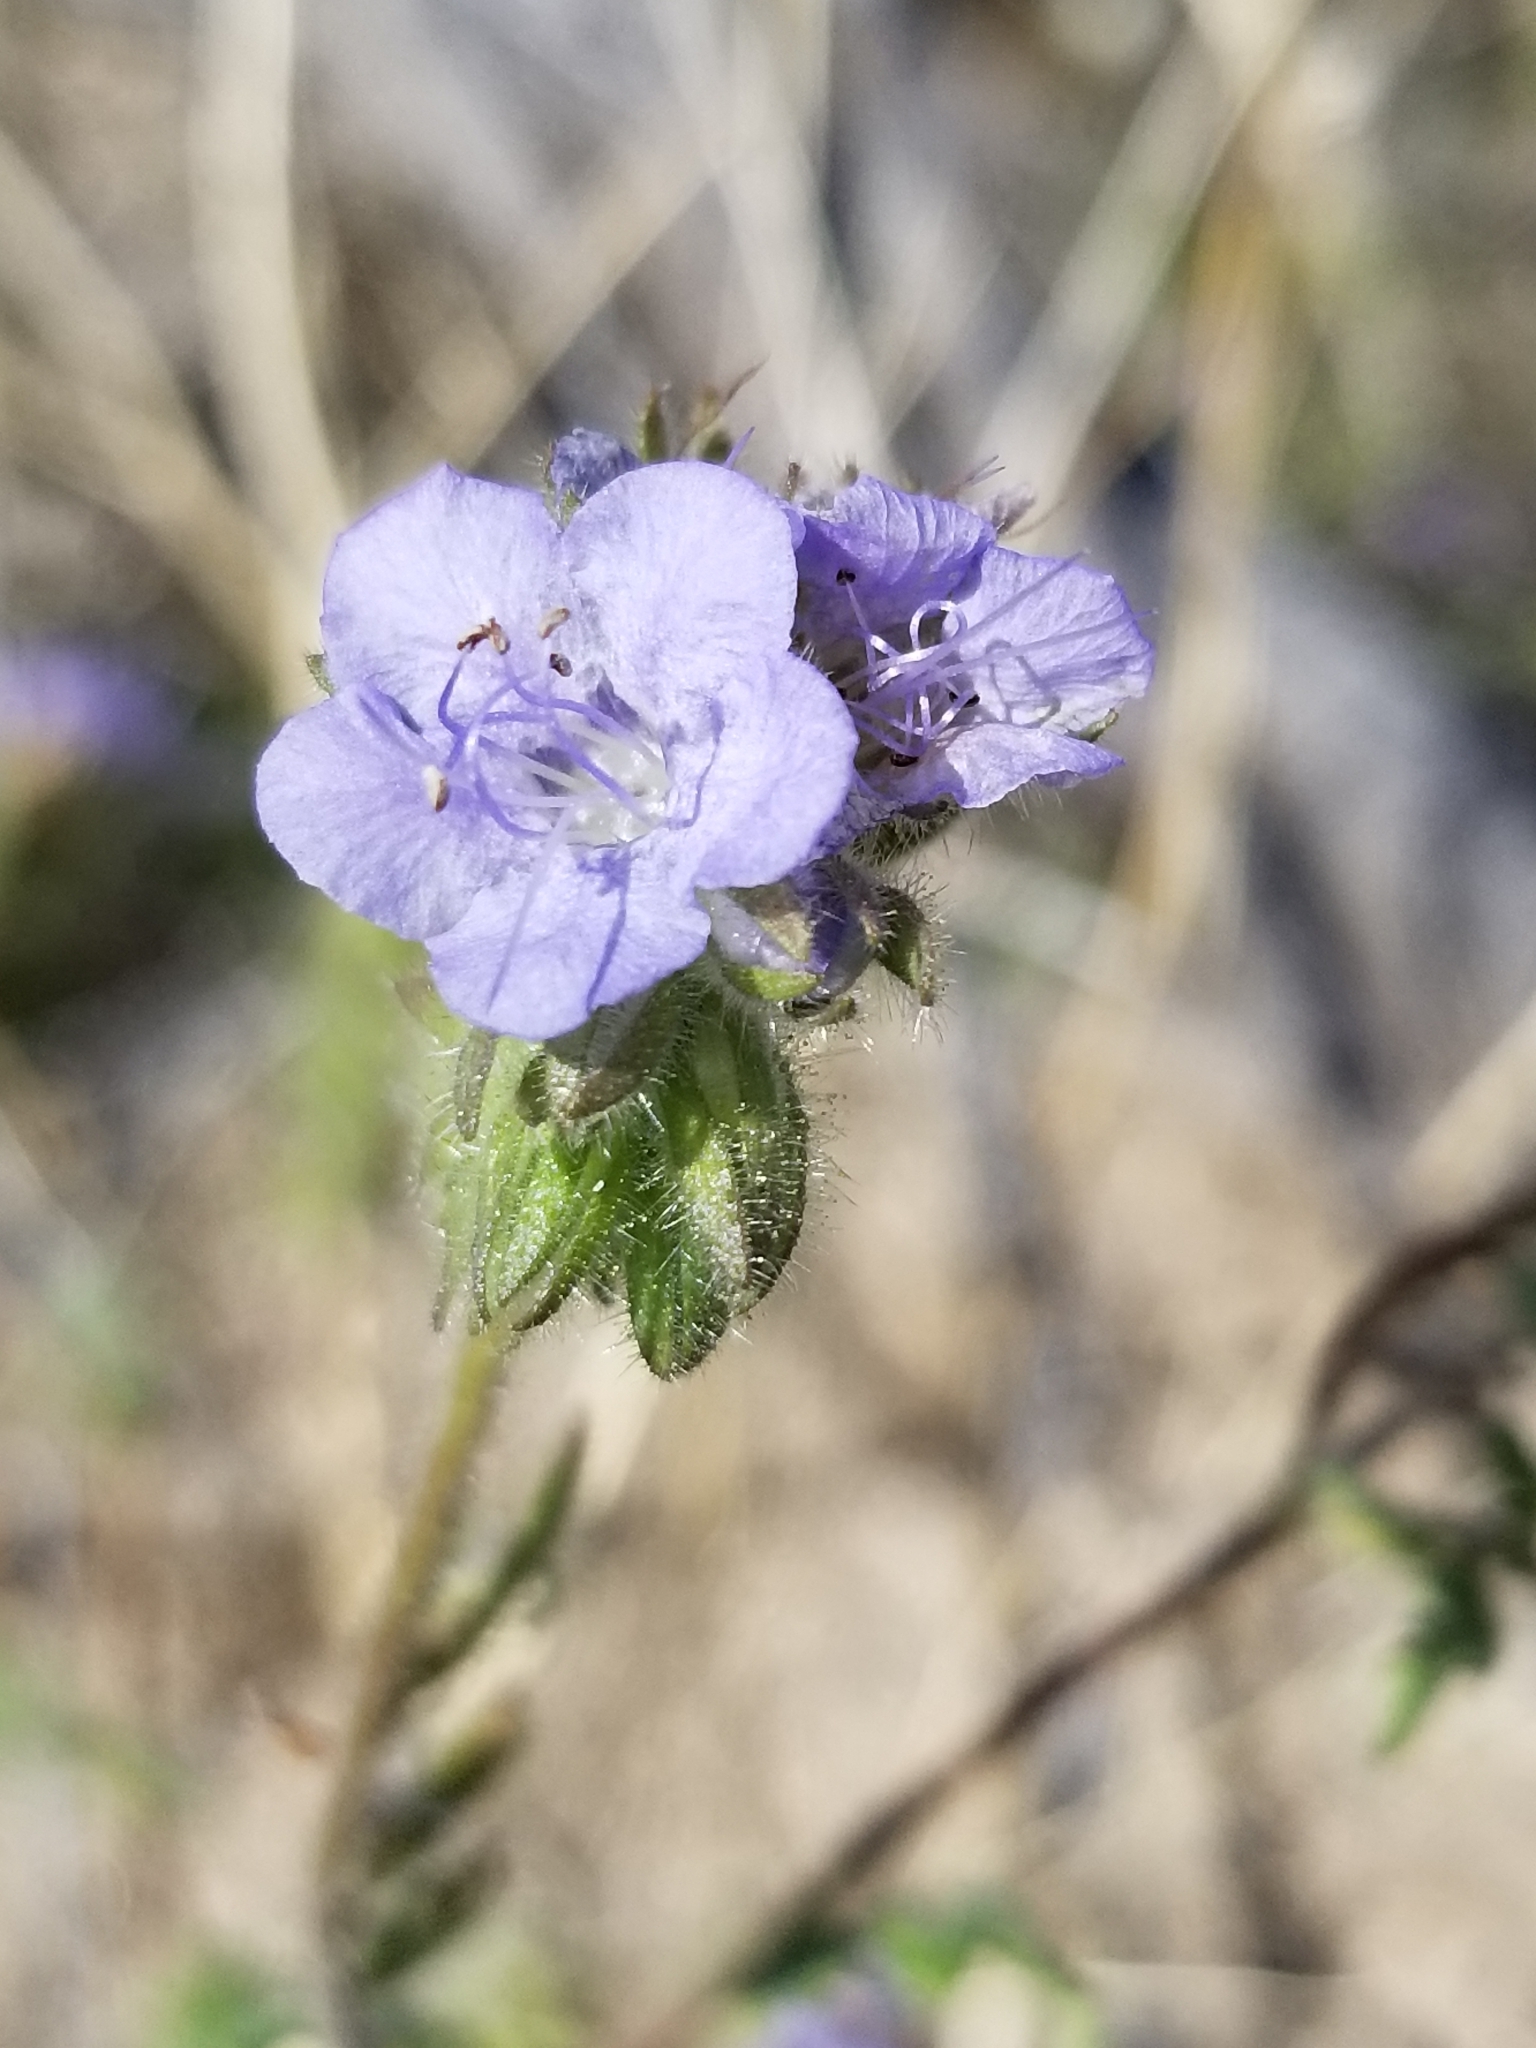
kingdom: Plantae
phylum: Tracheophyta
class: Magnoliopsida
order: Boraginales
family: Hydrophyllaceae
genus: Phacelia
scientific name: Phacelia distans
